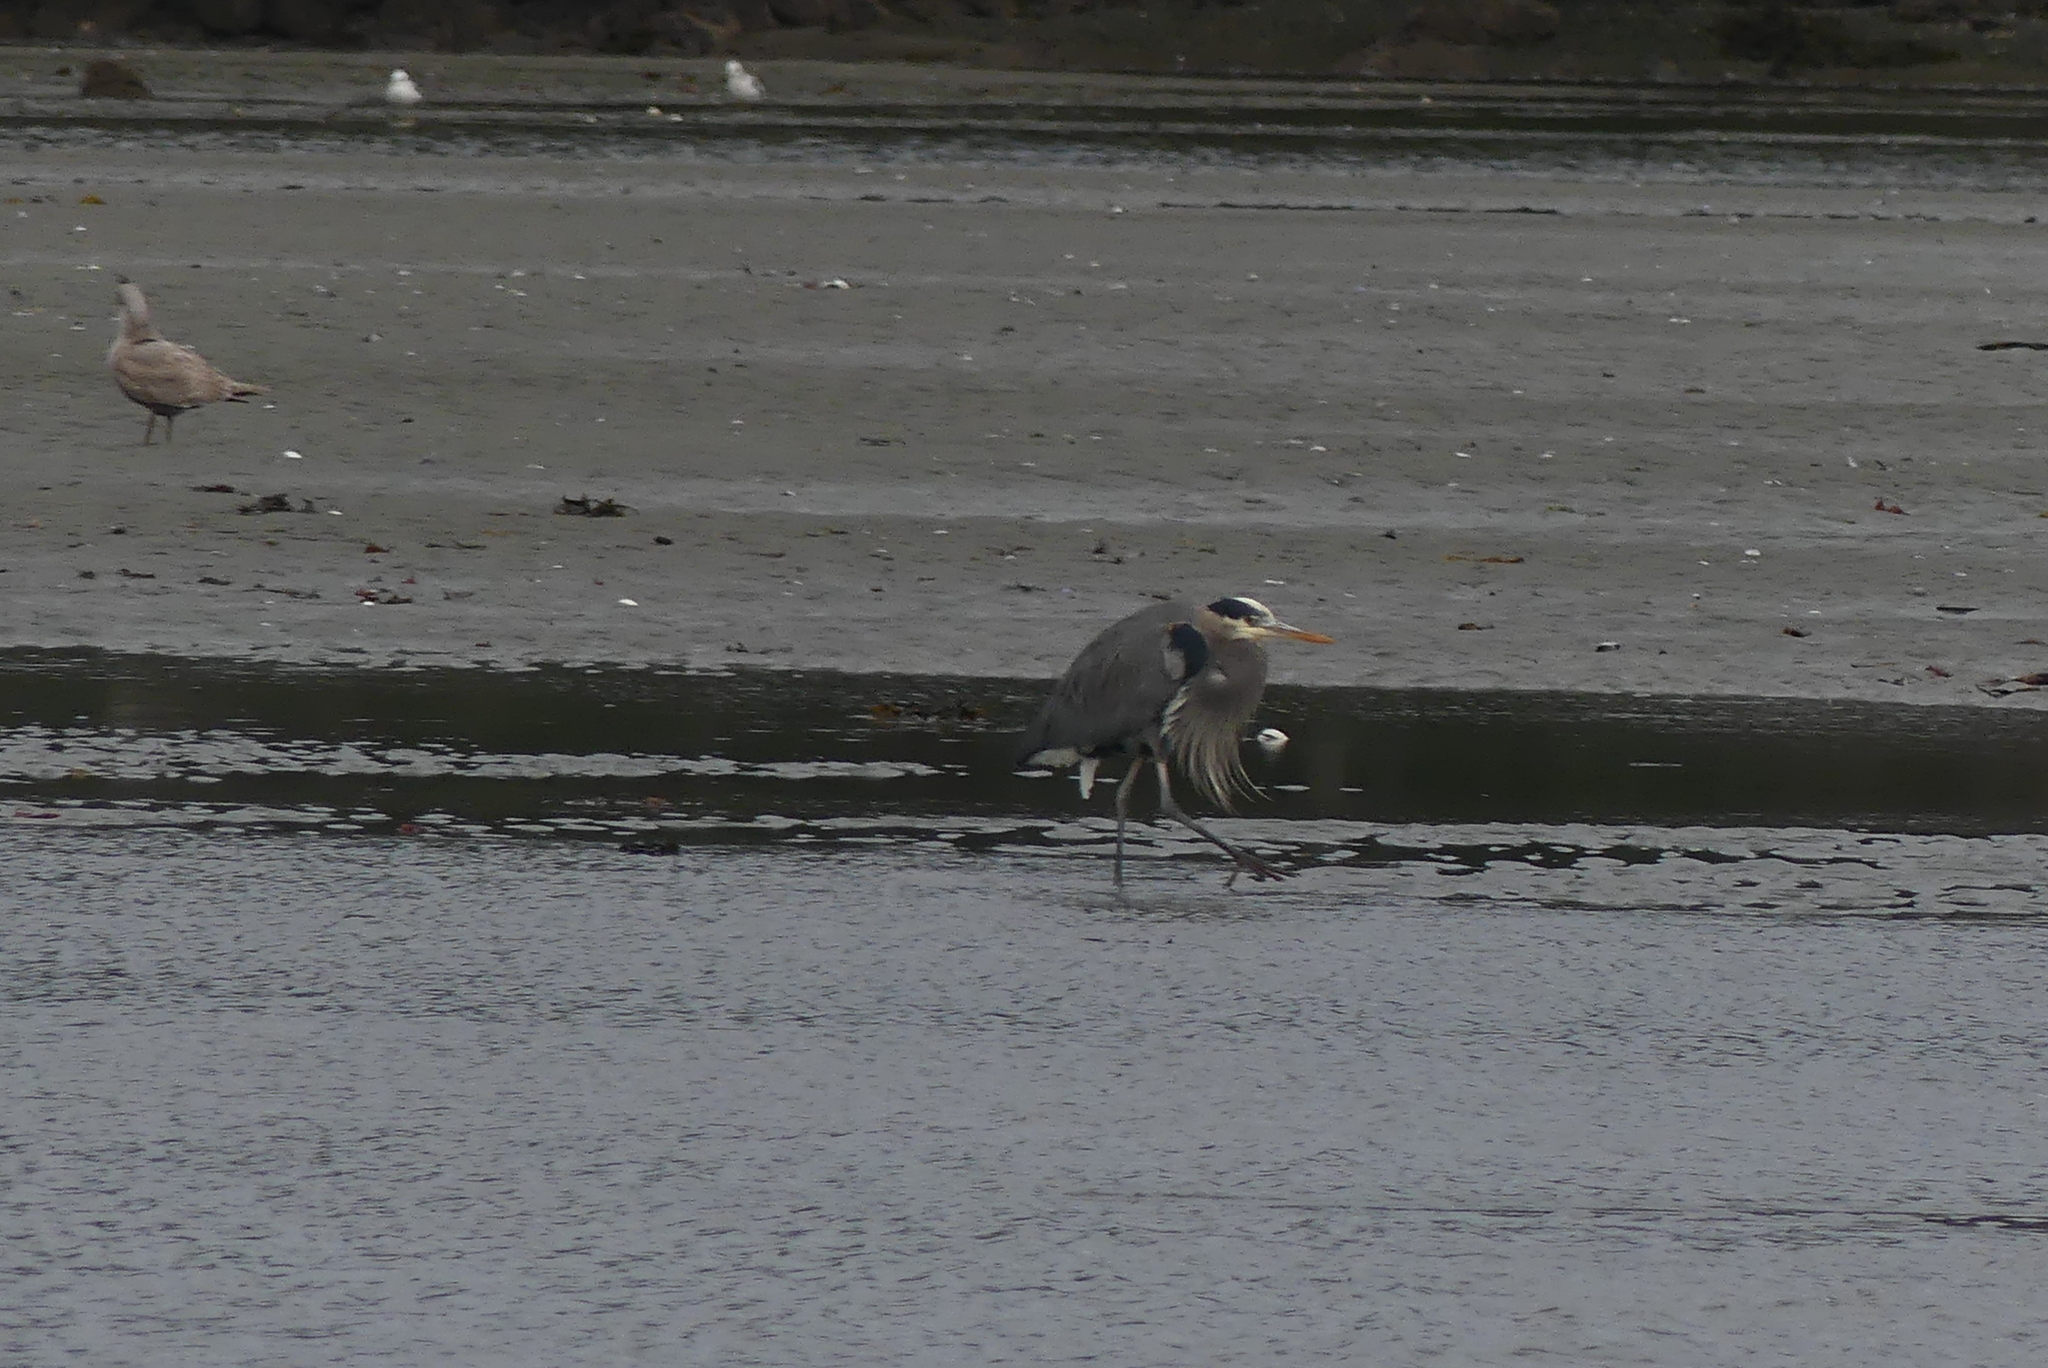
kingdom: Animalia
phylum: Chordata
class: Aves
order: Pelecaniformes
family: Ardeidae
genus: Ardea
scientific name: Ardea herodias
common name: Great blue heron
